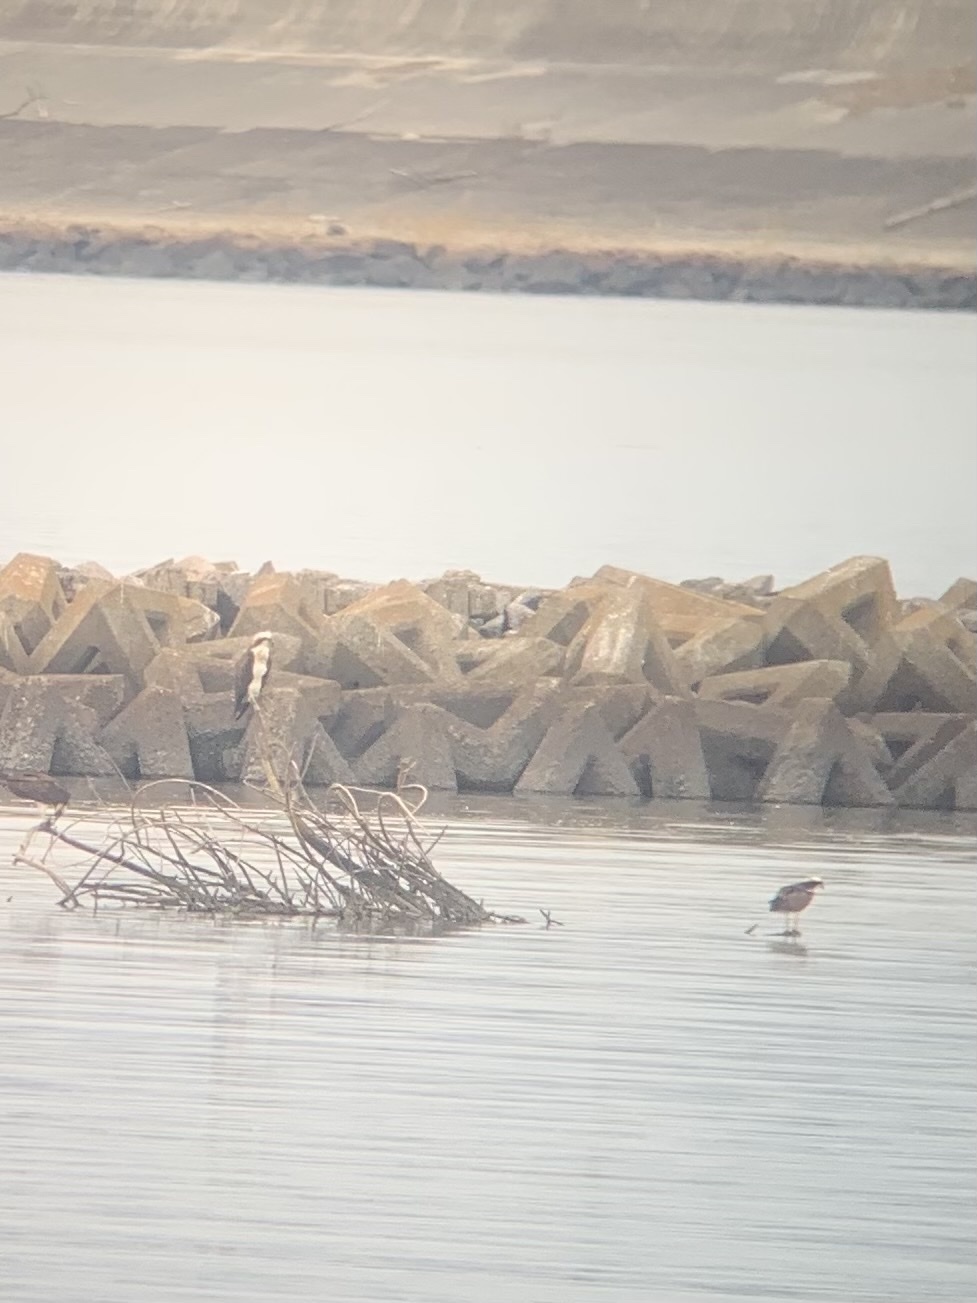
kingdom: Animalia
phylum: Chordata
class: Aves
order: Accipitriformes
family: Pandionidae
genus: Pandion
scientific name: Pandion haliaetus
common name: Osprey
